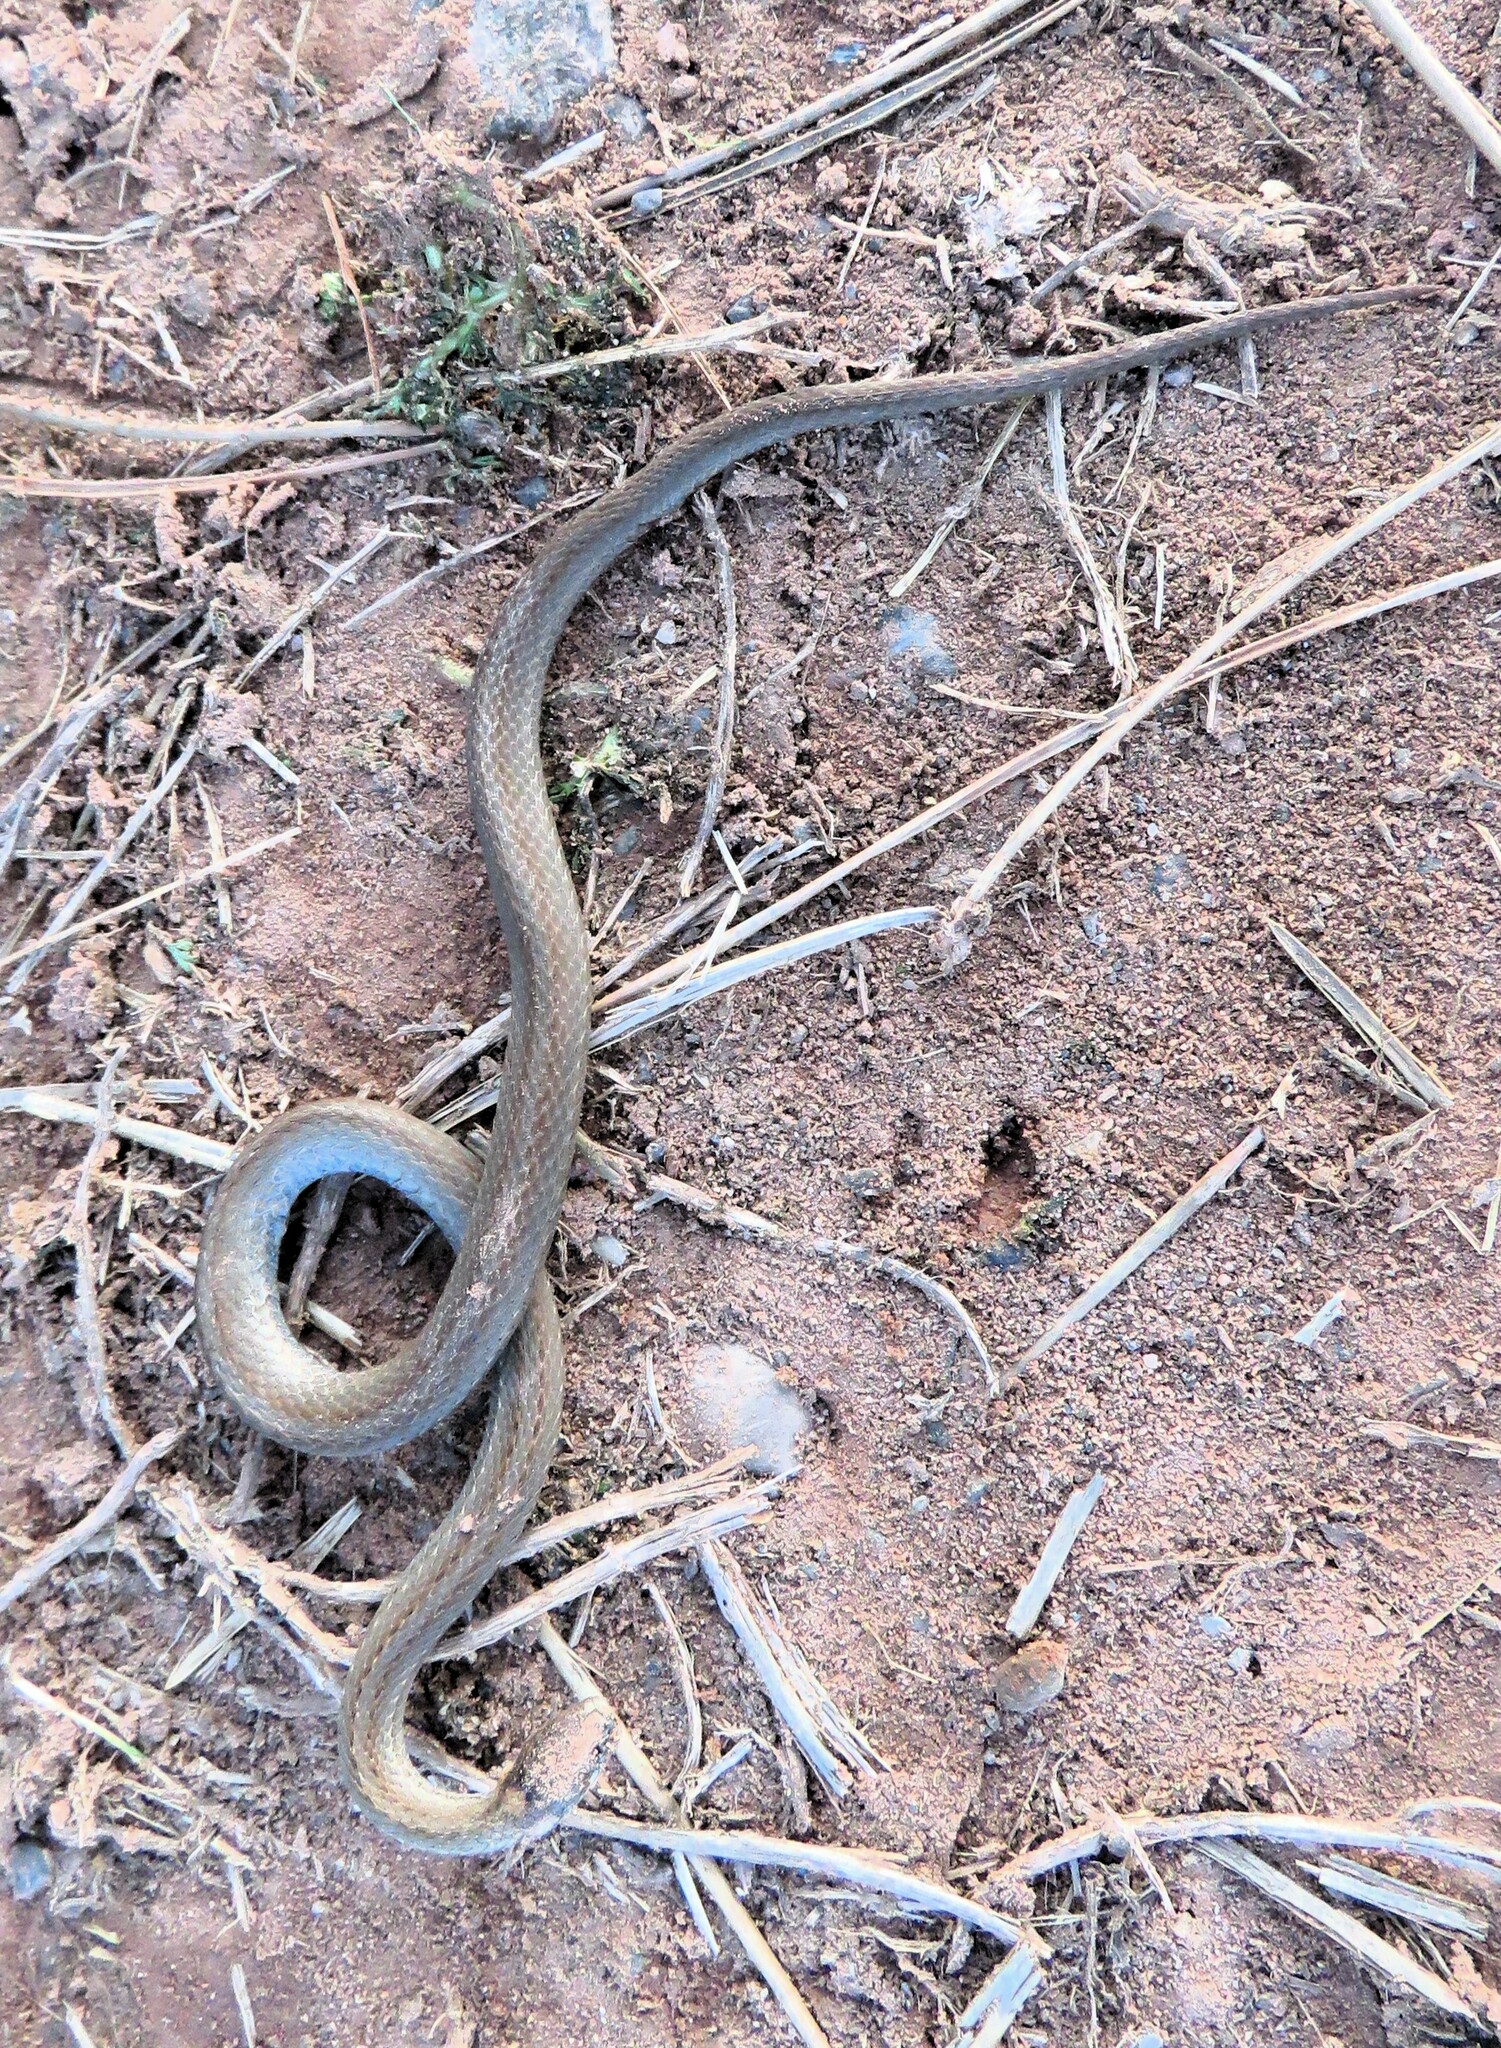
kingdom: Animalia
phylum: Chordata
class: Squamata
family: Colubridae
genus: Storeria
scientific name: Storeria occipitomaculata
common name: Redbelly snake
